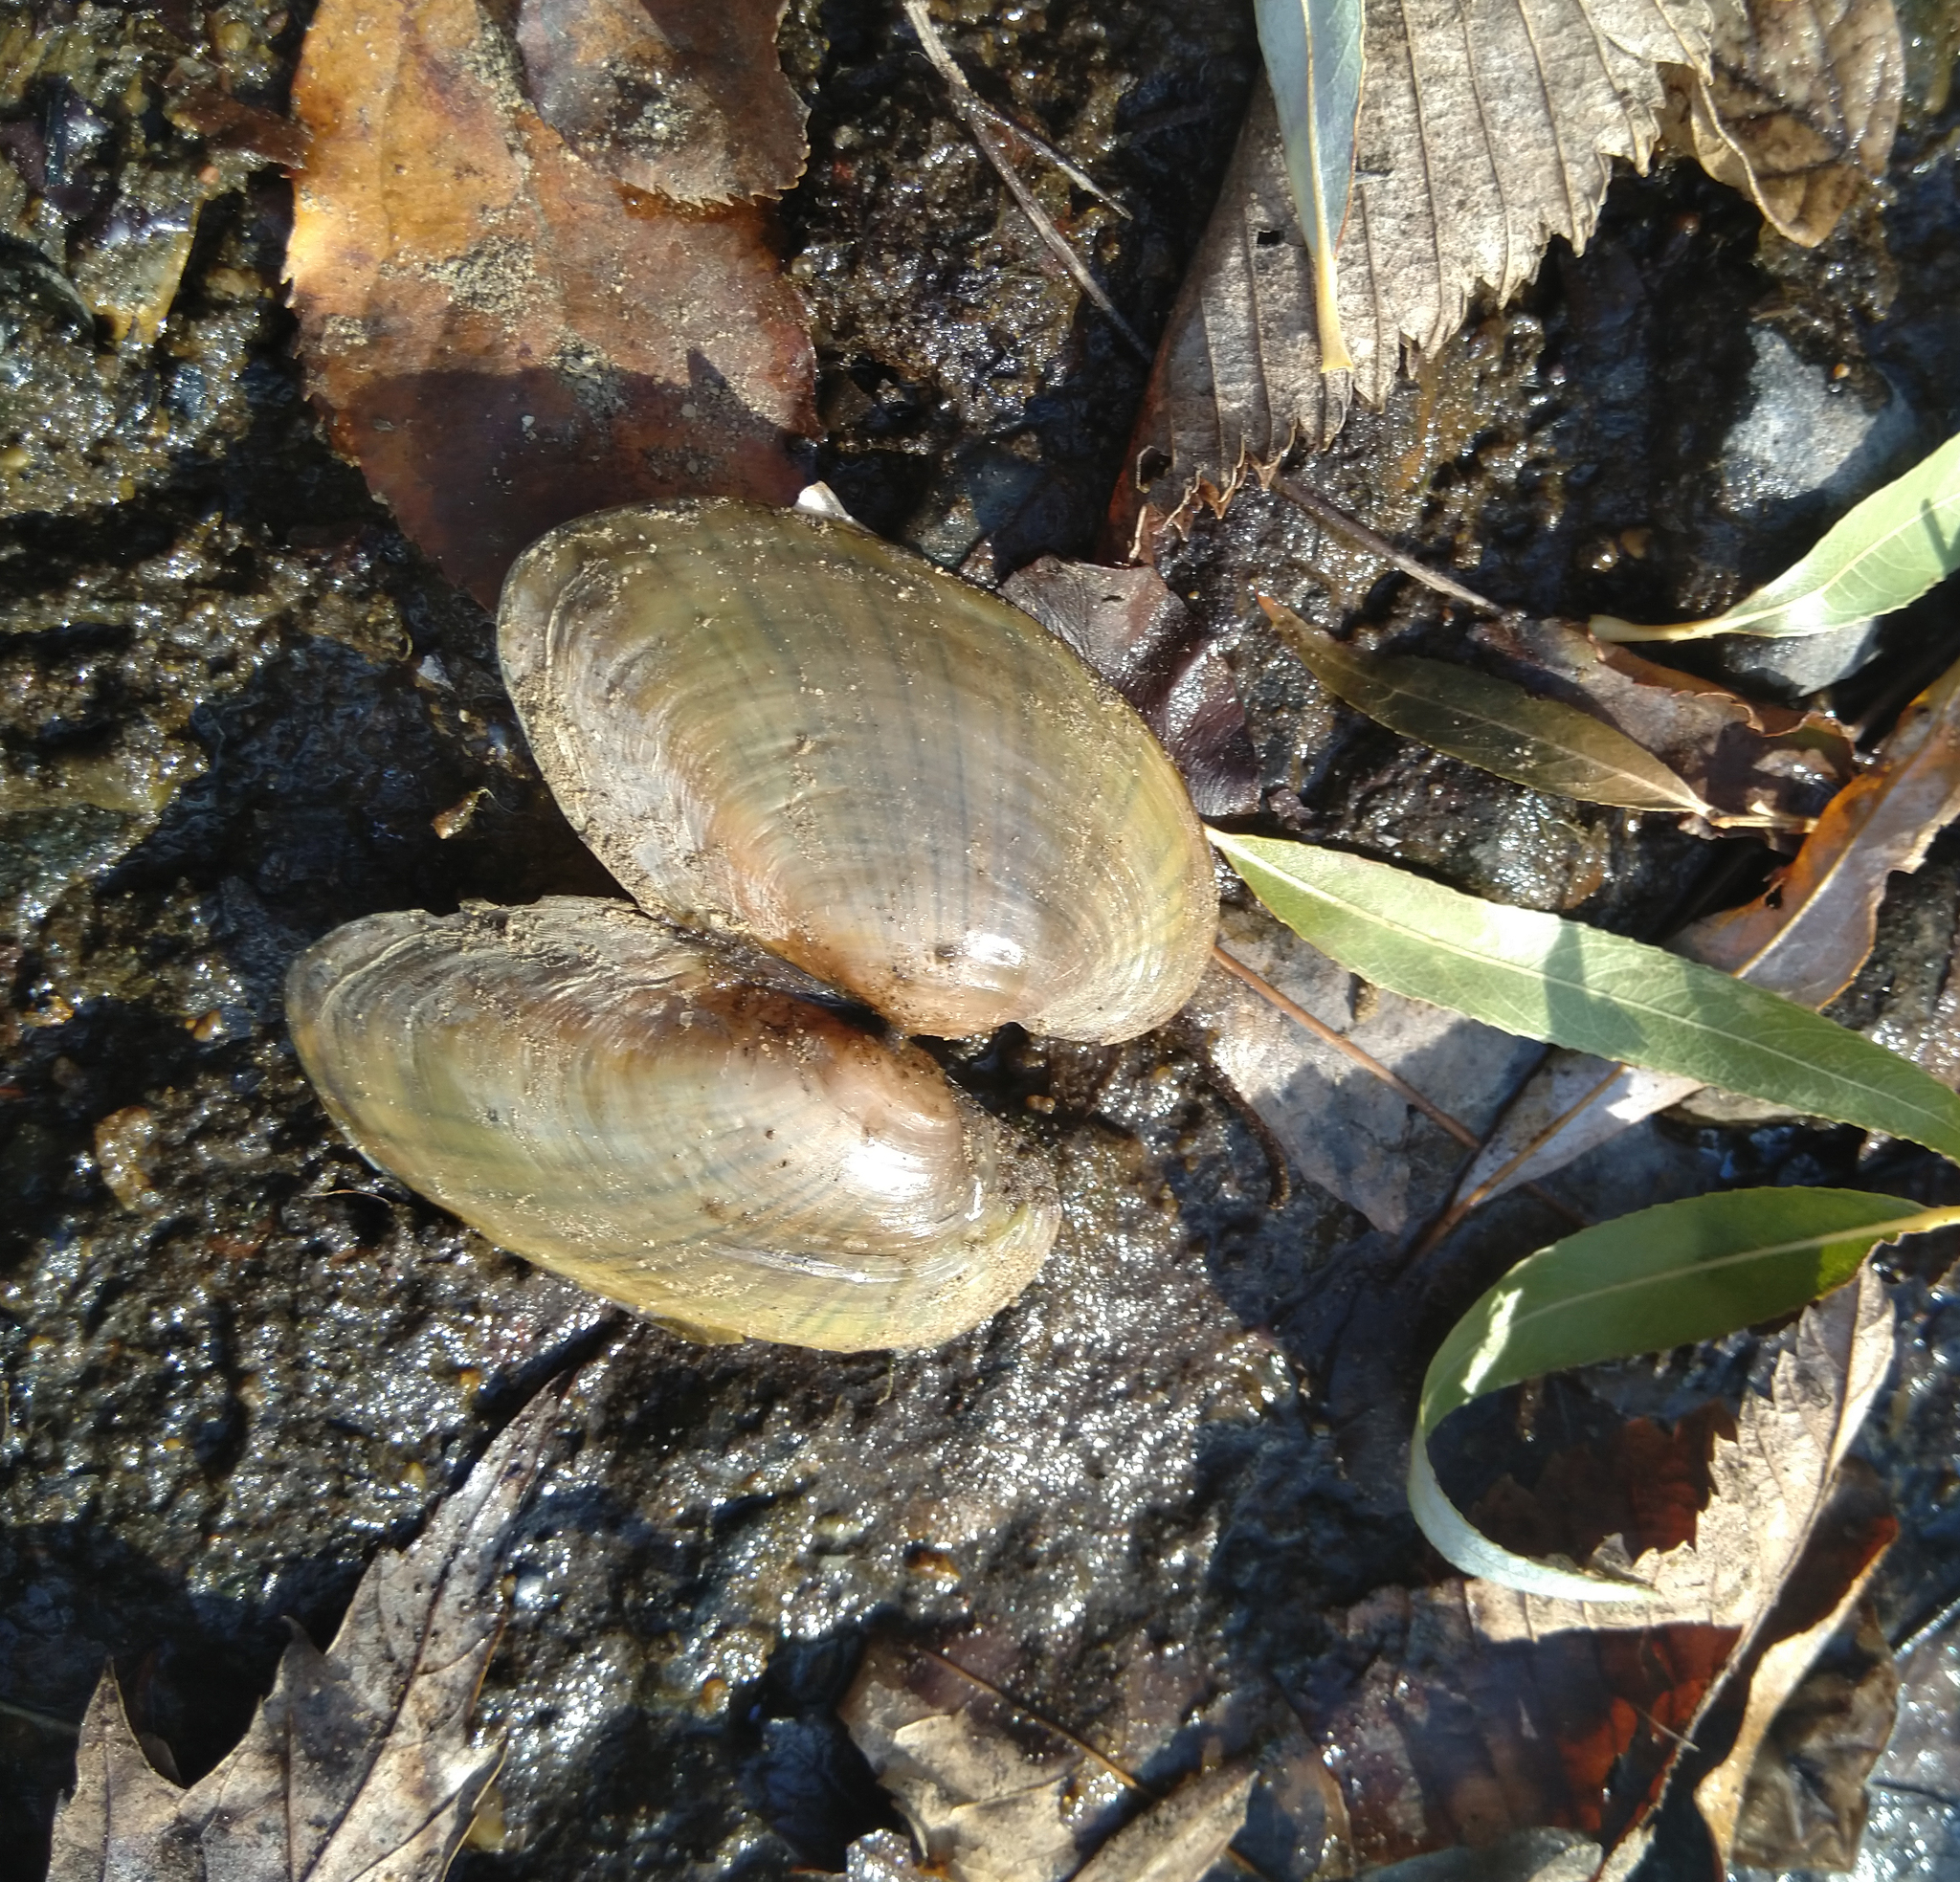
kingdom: Animalia
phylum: Mollusca
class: Bivalvia
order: Unionida
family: Unionidae
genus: Lampsilis
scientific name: Lampsilis siliquoidea
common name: Fatmucket
